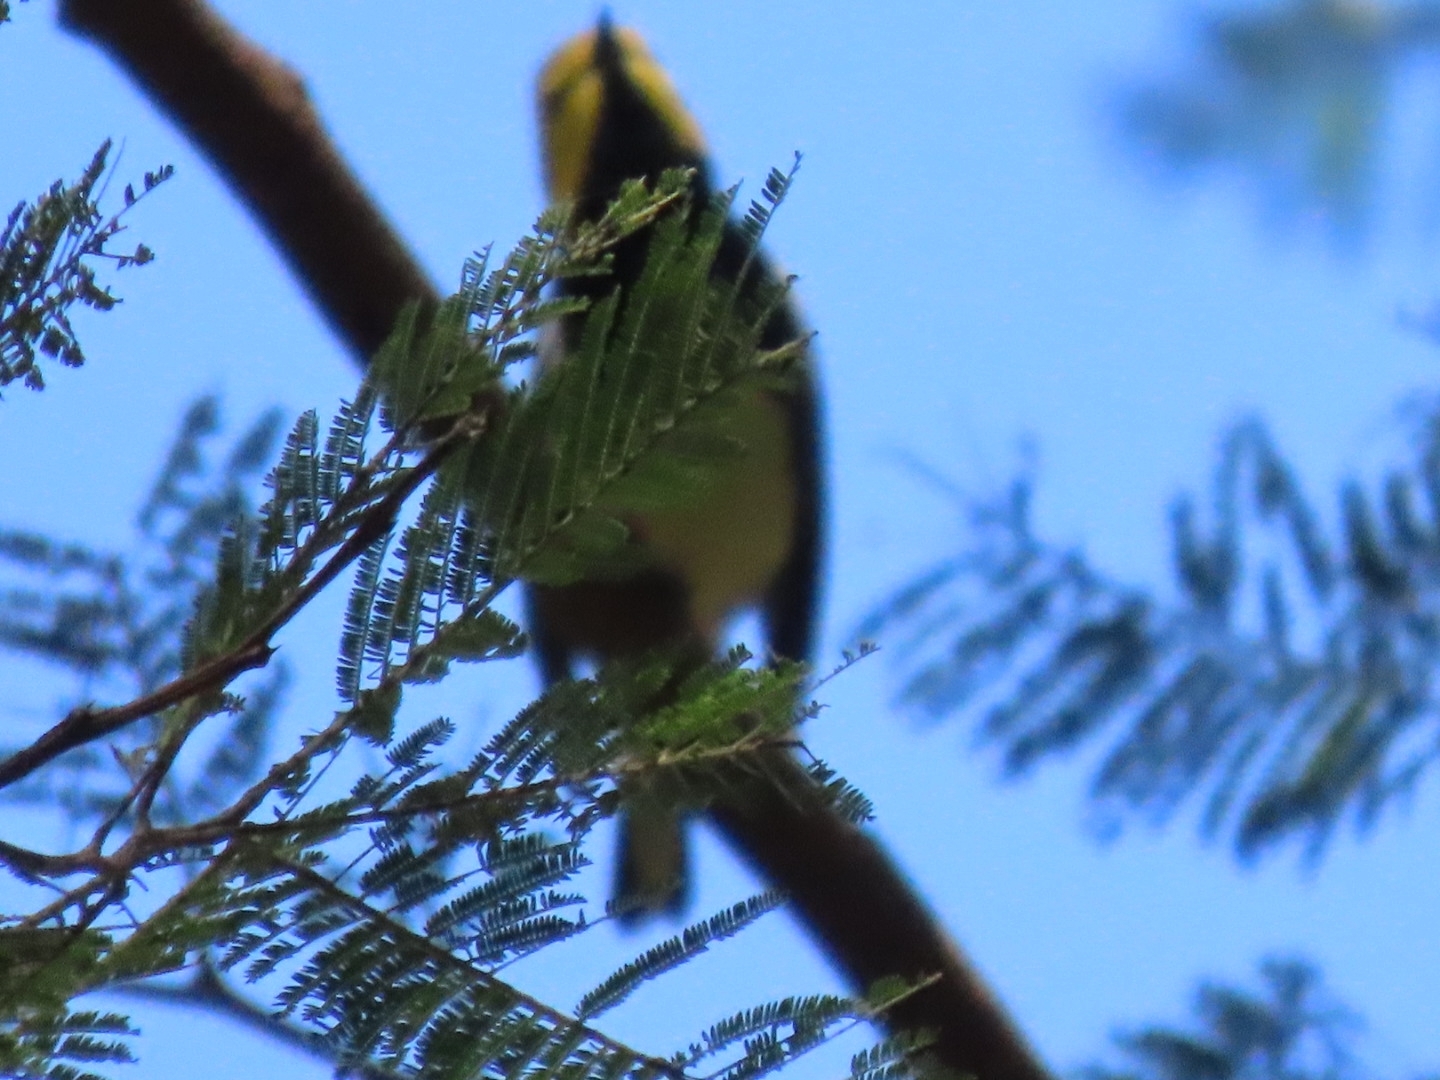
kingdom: Animalia
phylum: Chordata
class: Aves
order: Passeriformes
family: Parulidae
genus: Setophaga
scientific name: Setophaga virens
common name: Black-throated green warbler
